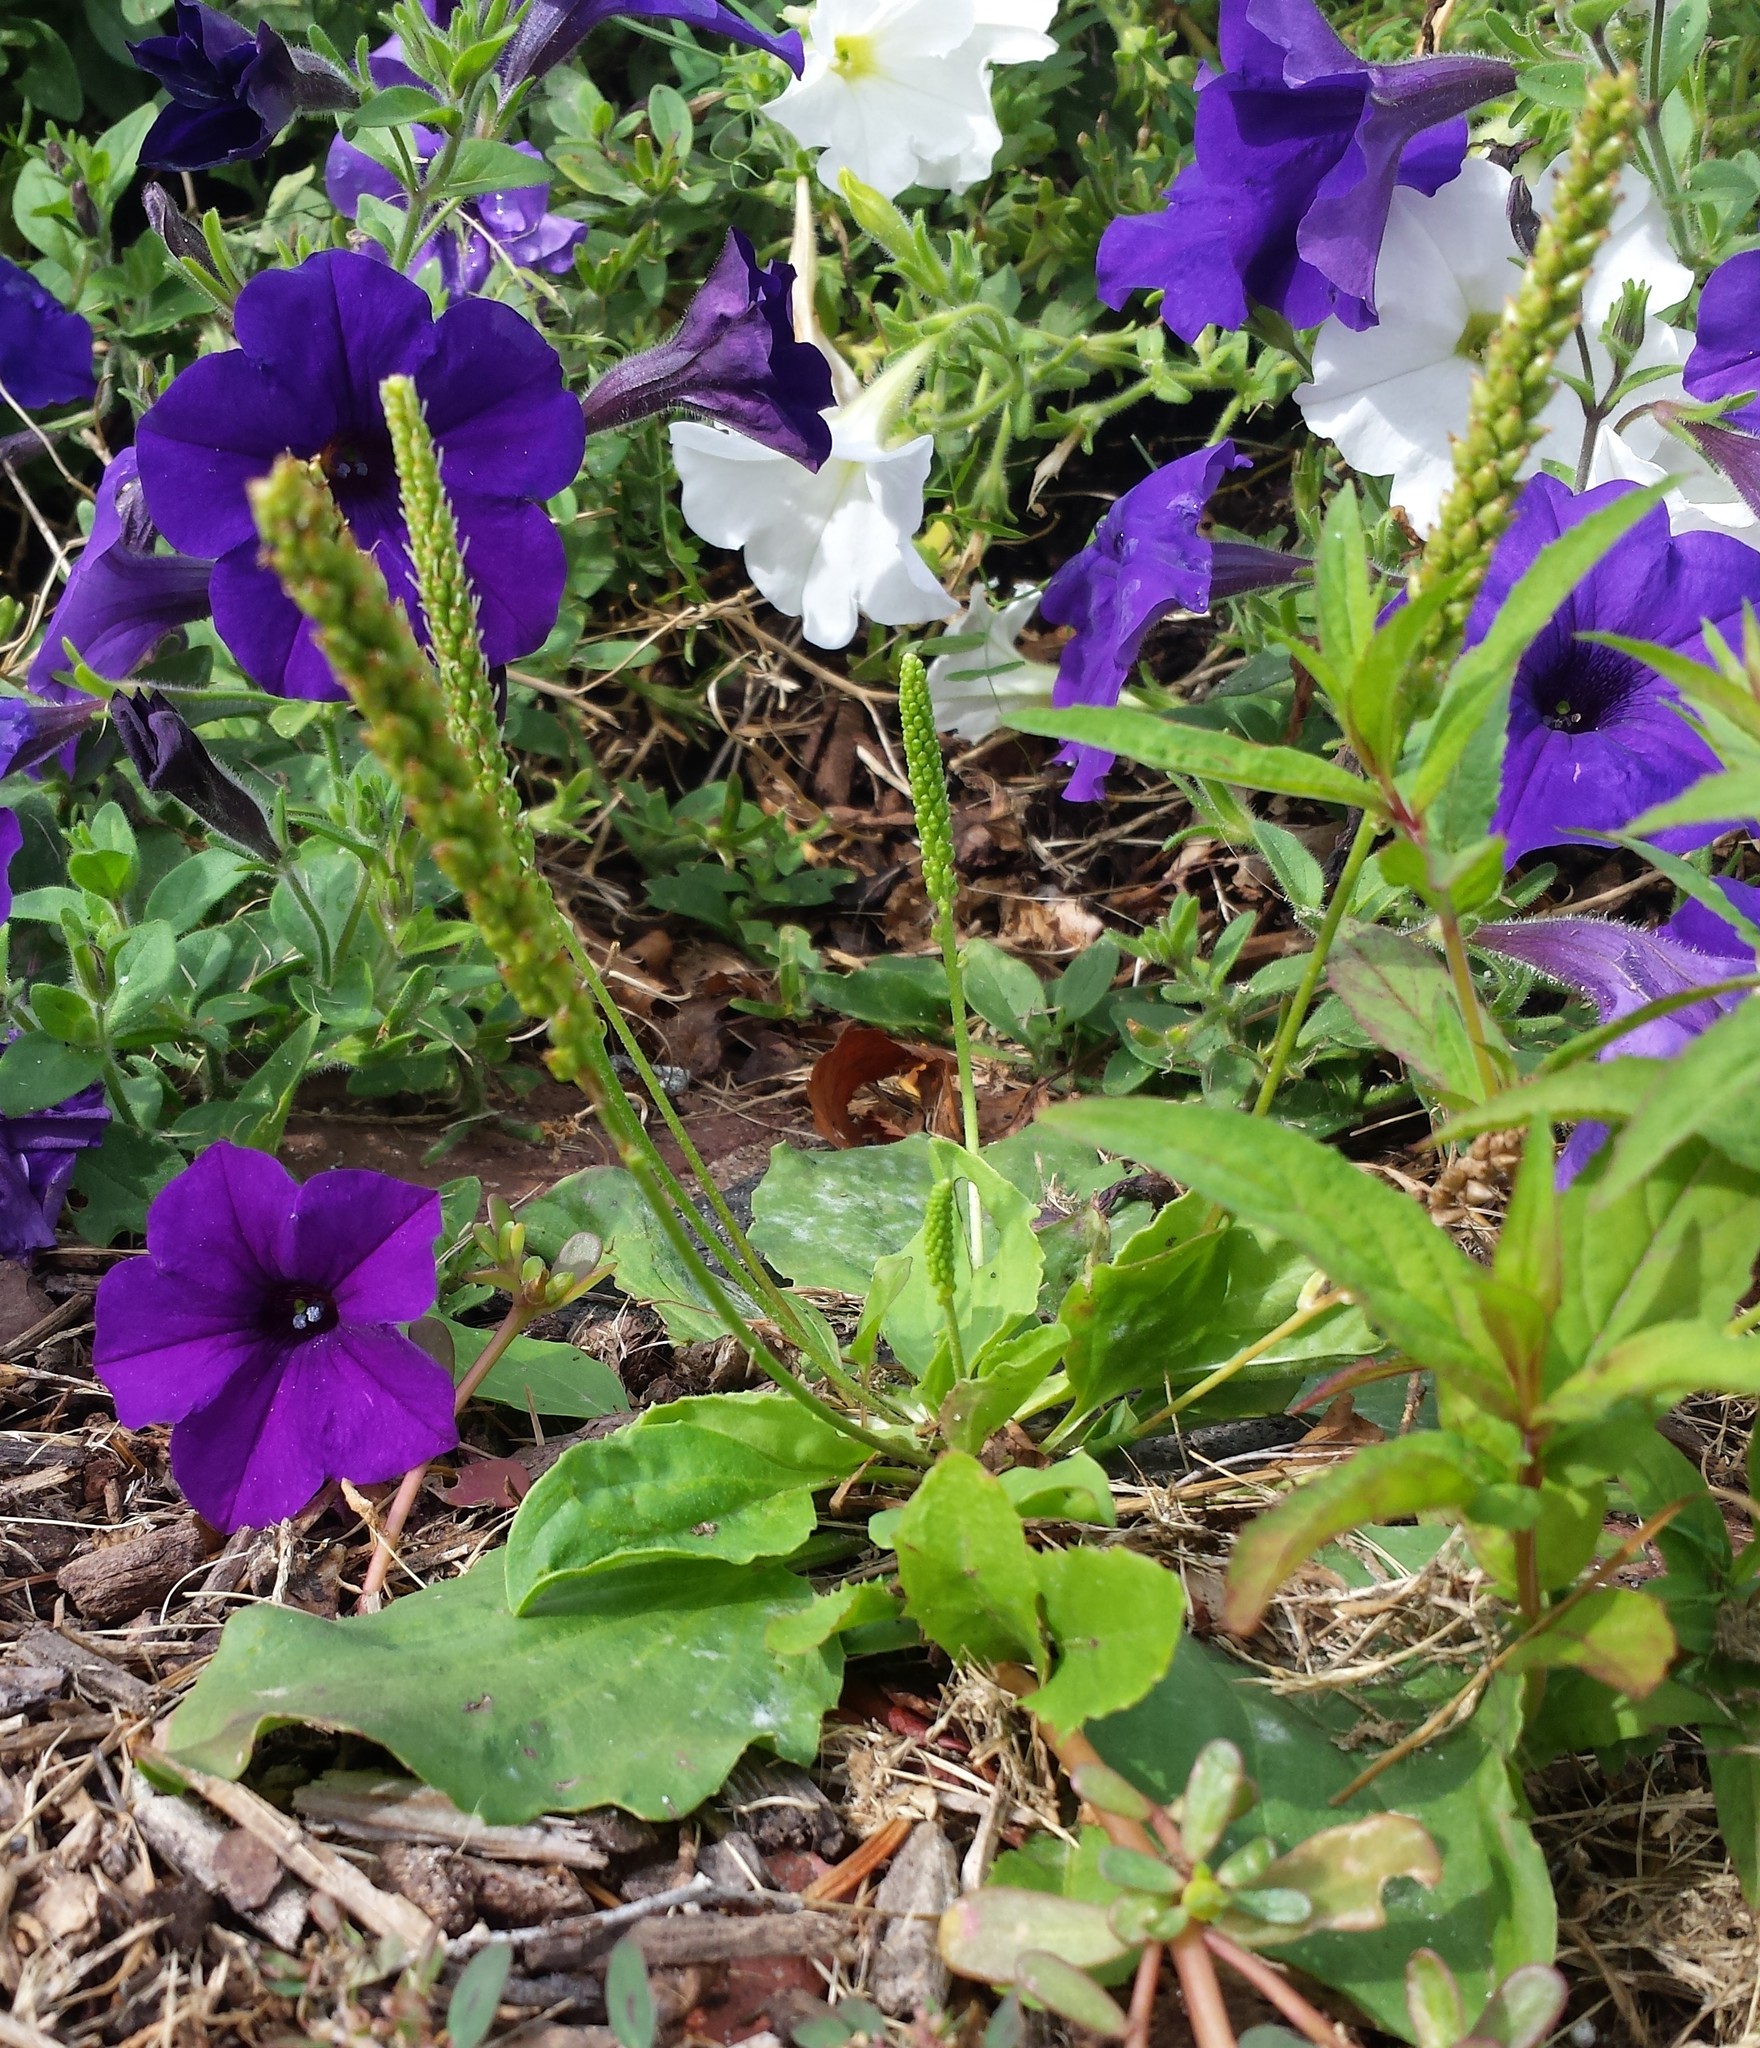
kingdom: Plantae
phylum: Tracheophyta
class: Magnoliopsida
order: Lamiales
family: Plantaginaceae
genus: Plantago
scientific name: Plantago major
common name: Common plantain
